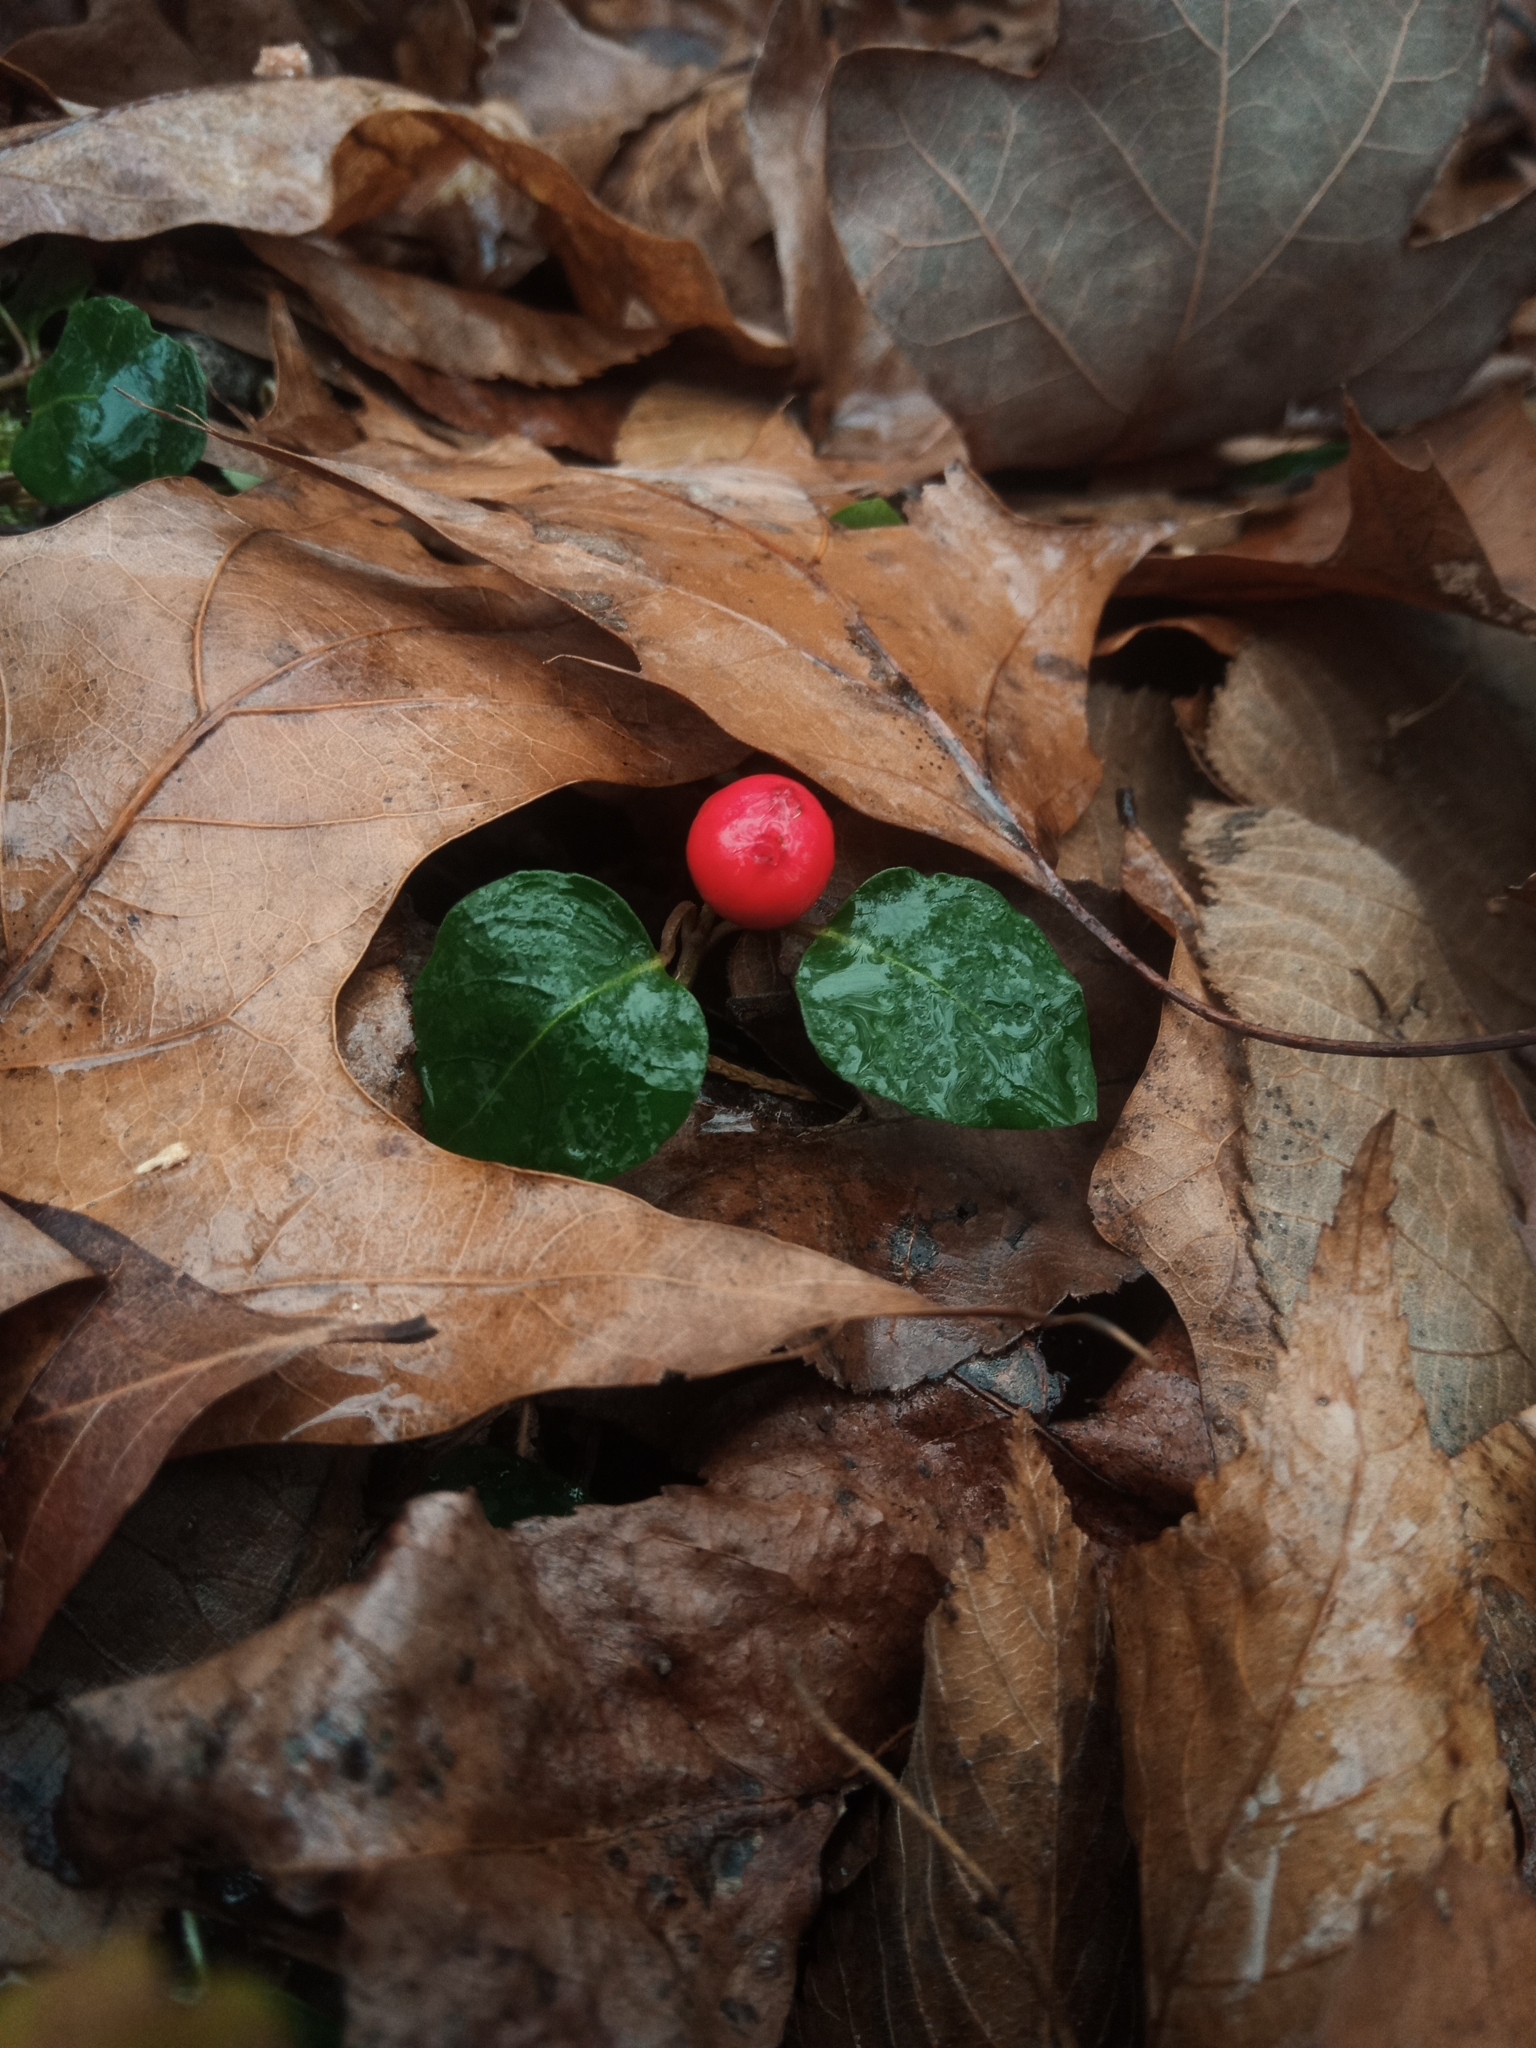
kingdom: Plantae
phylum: Tracheophyta
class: Magnoliopsida
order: Gentianales
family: Rubiaceae
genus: Mitchella
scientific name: Mitchella repens
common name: Partridge-berry
